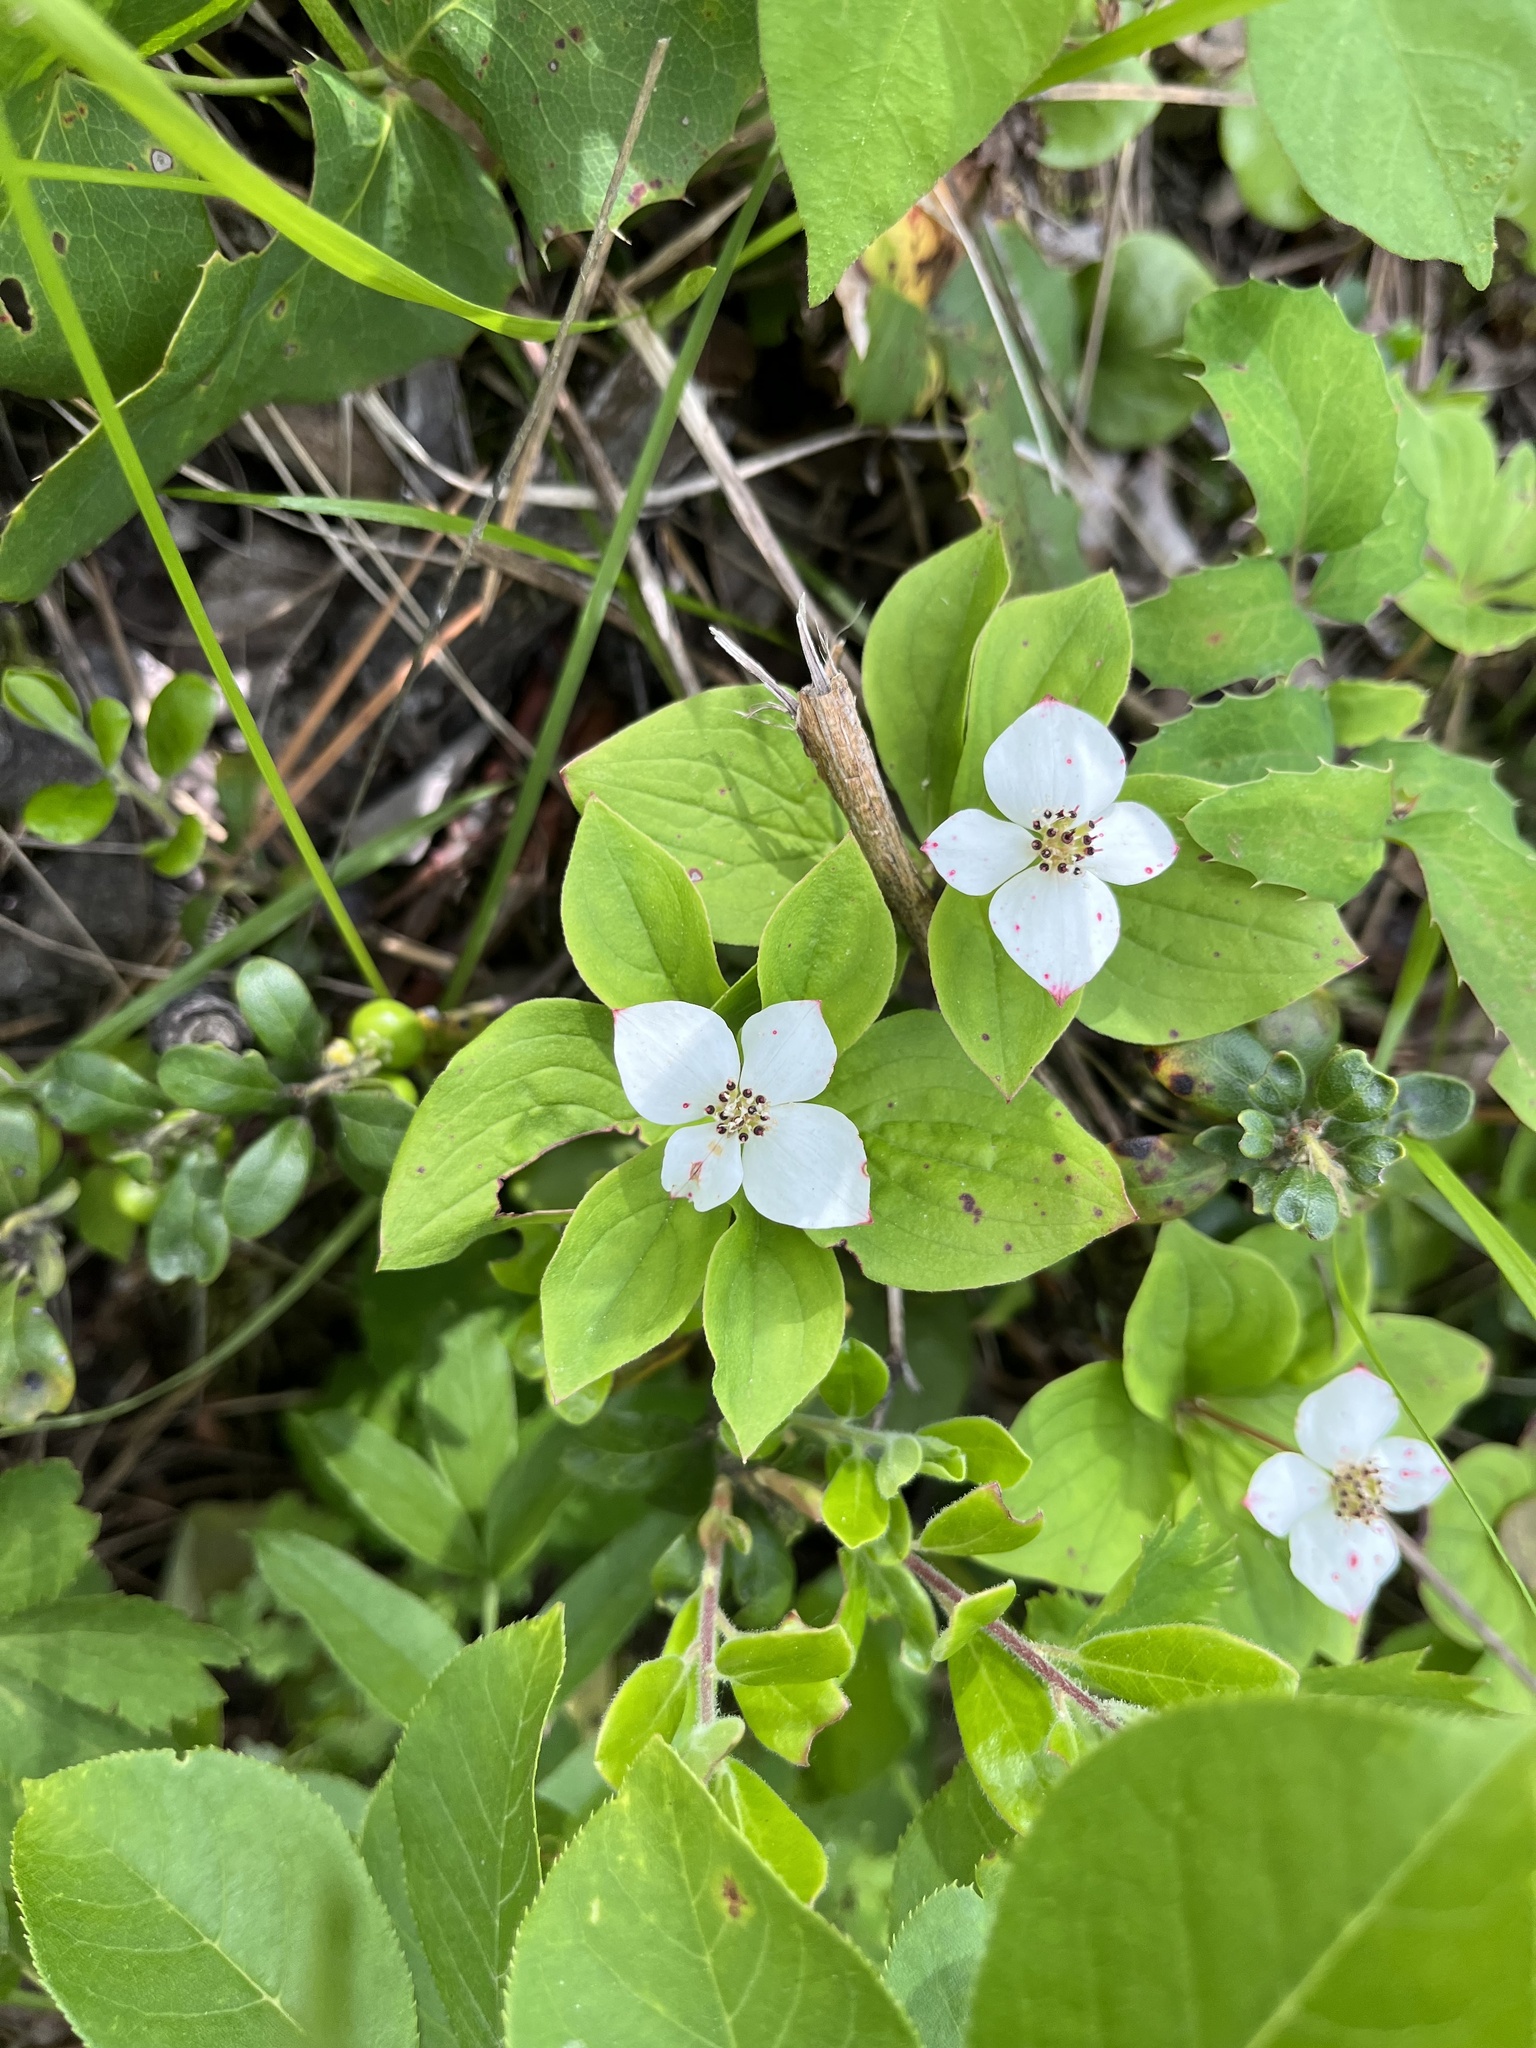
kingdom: Plantae
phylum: Tracheophyta
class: Magnoliopsida
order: Cornales
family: Cornaceae
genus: Cornus
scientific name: Cornus canadensis
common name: Creeping dogwood
